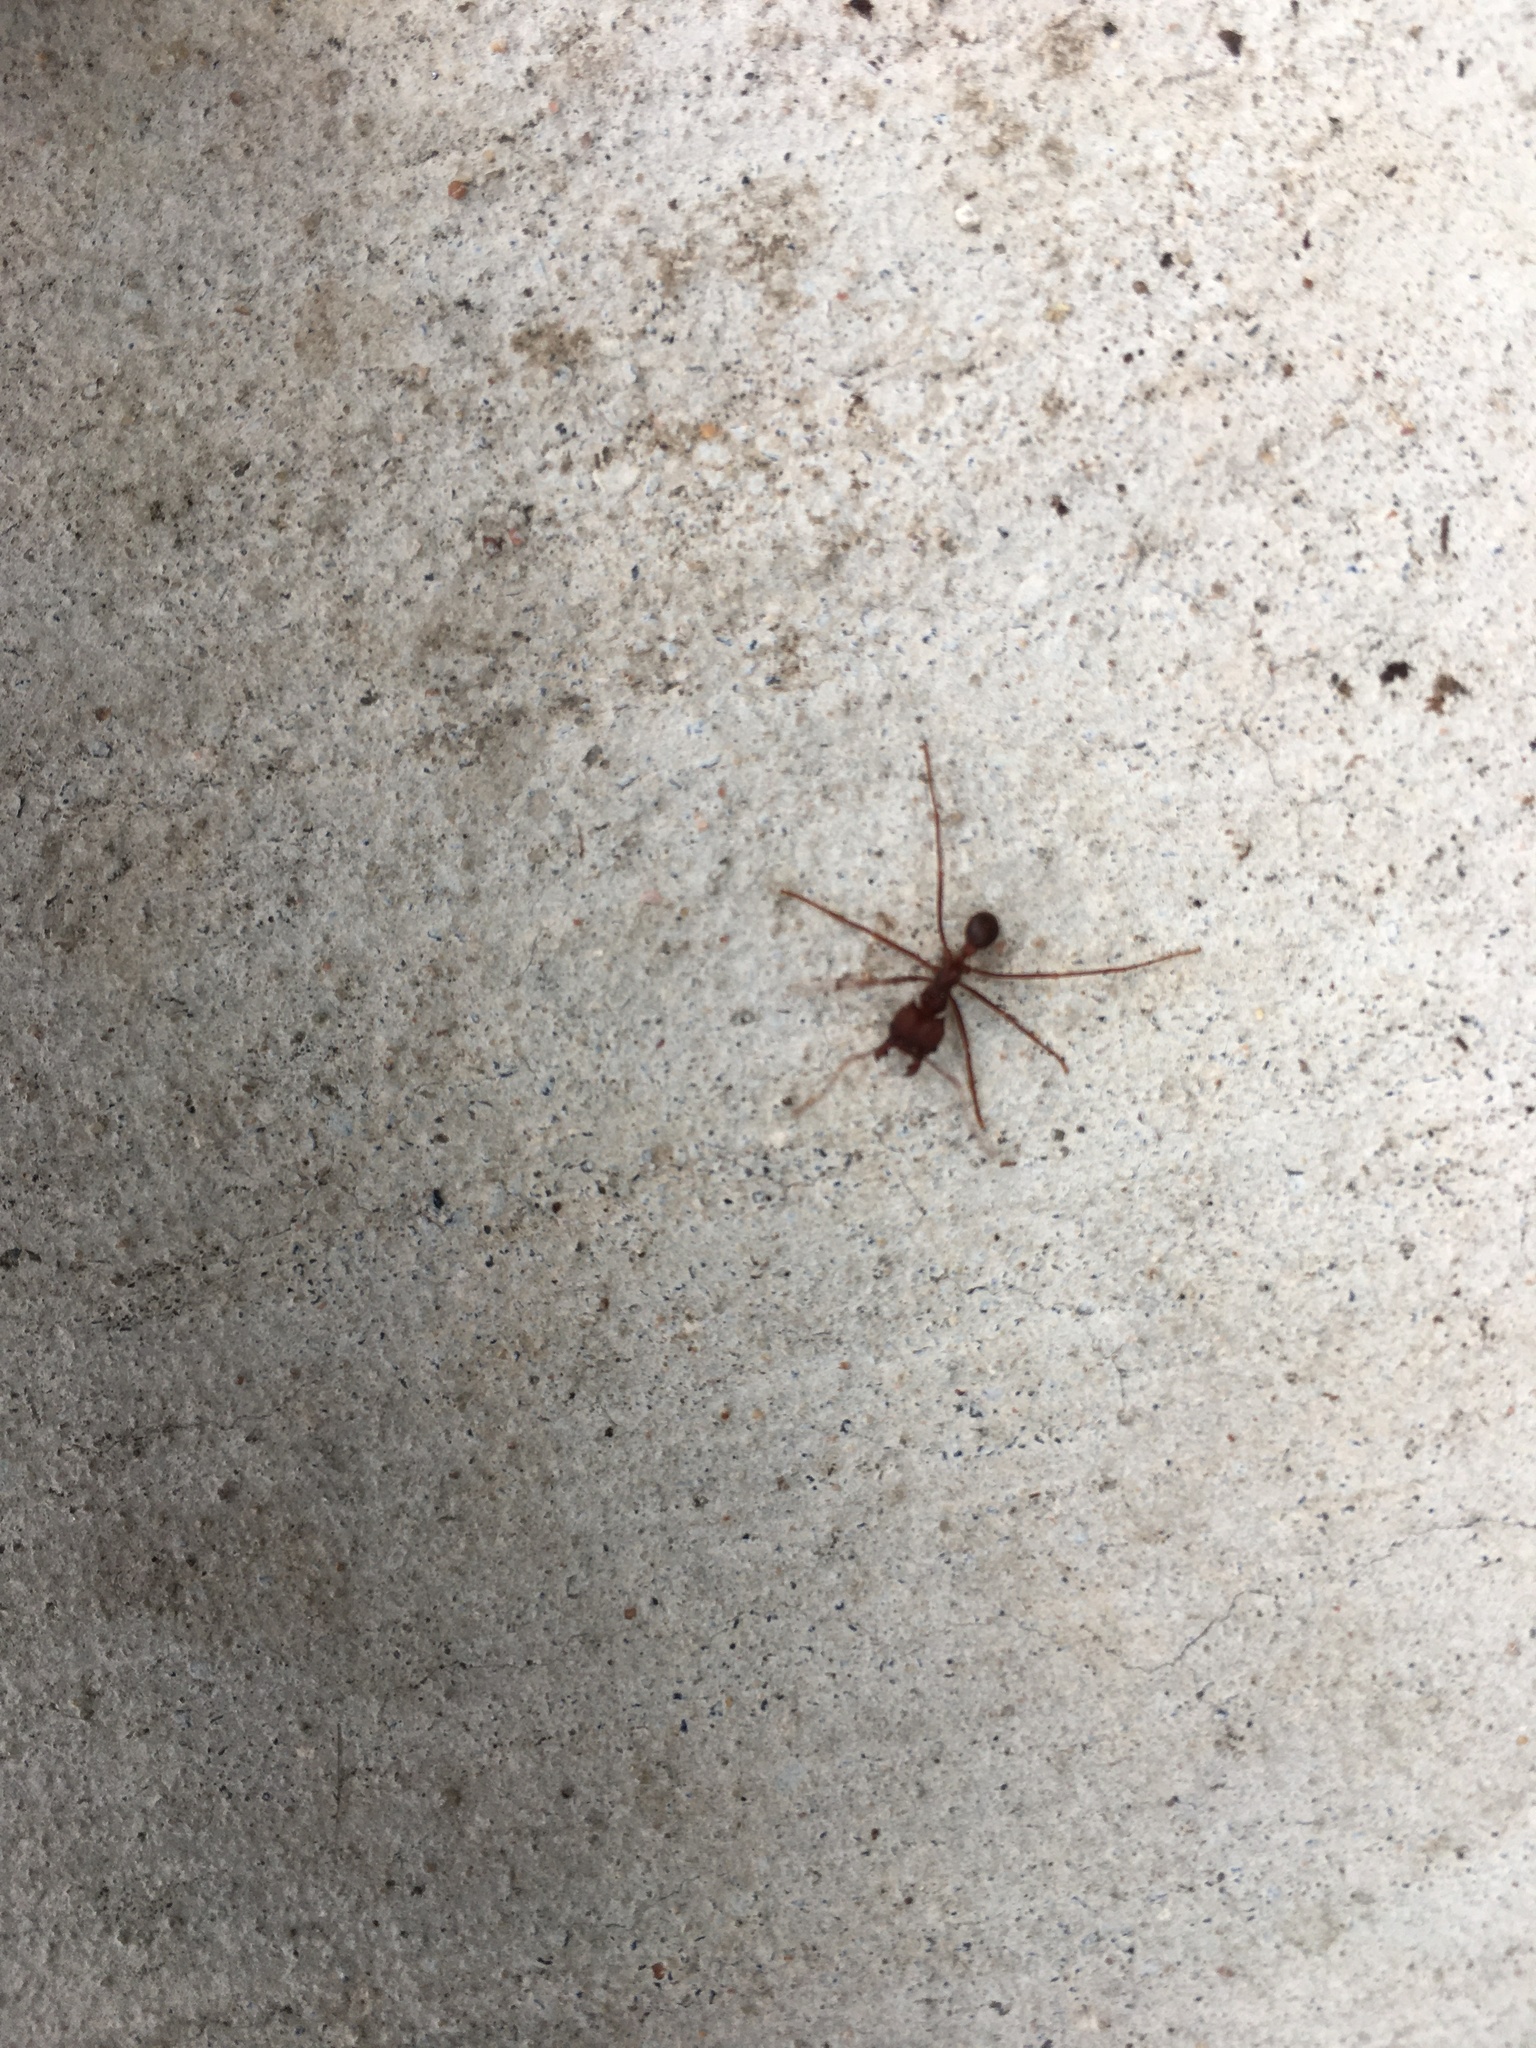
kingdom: Animalia
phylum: Arthropoda
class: Insecta
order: Hymenoptera
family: Formicidae
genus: Atta
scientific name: Atta texana
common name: Texas leafcutting ant
